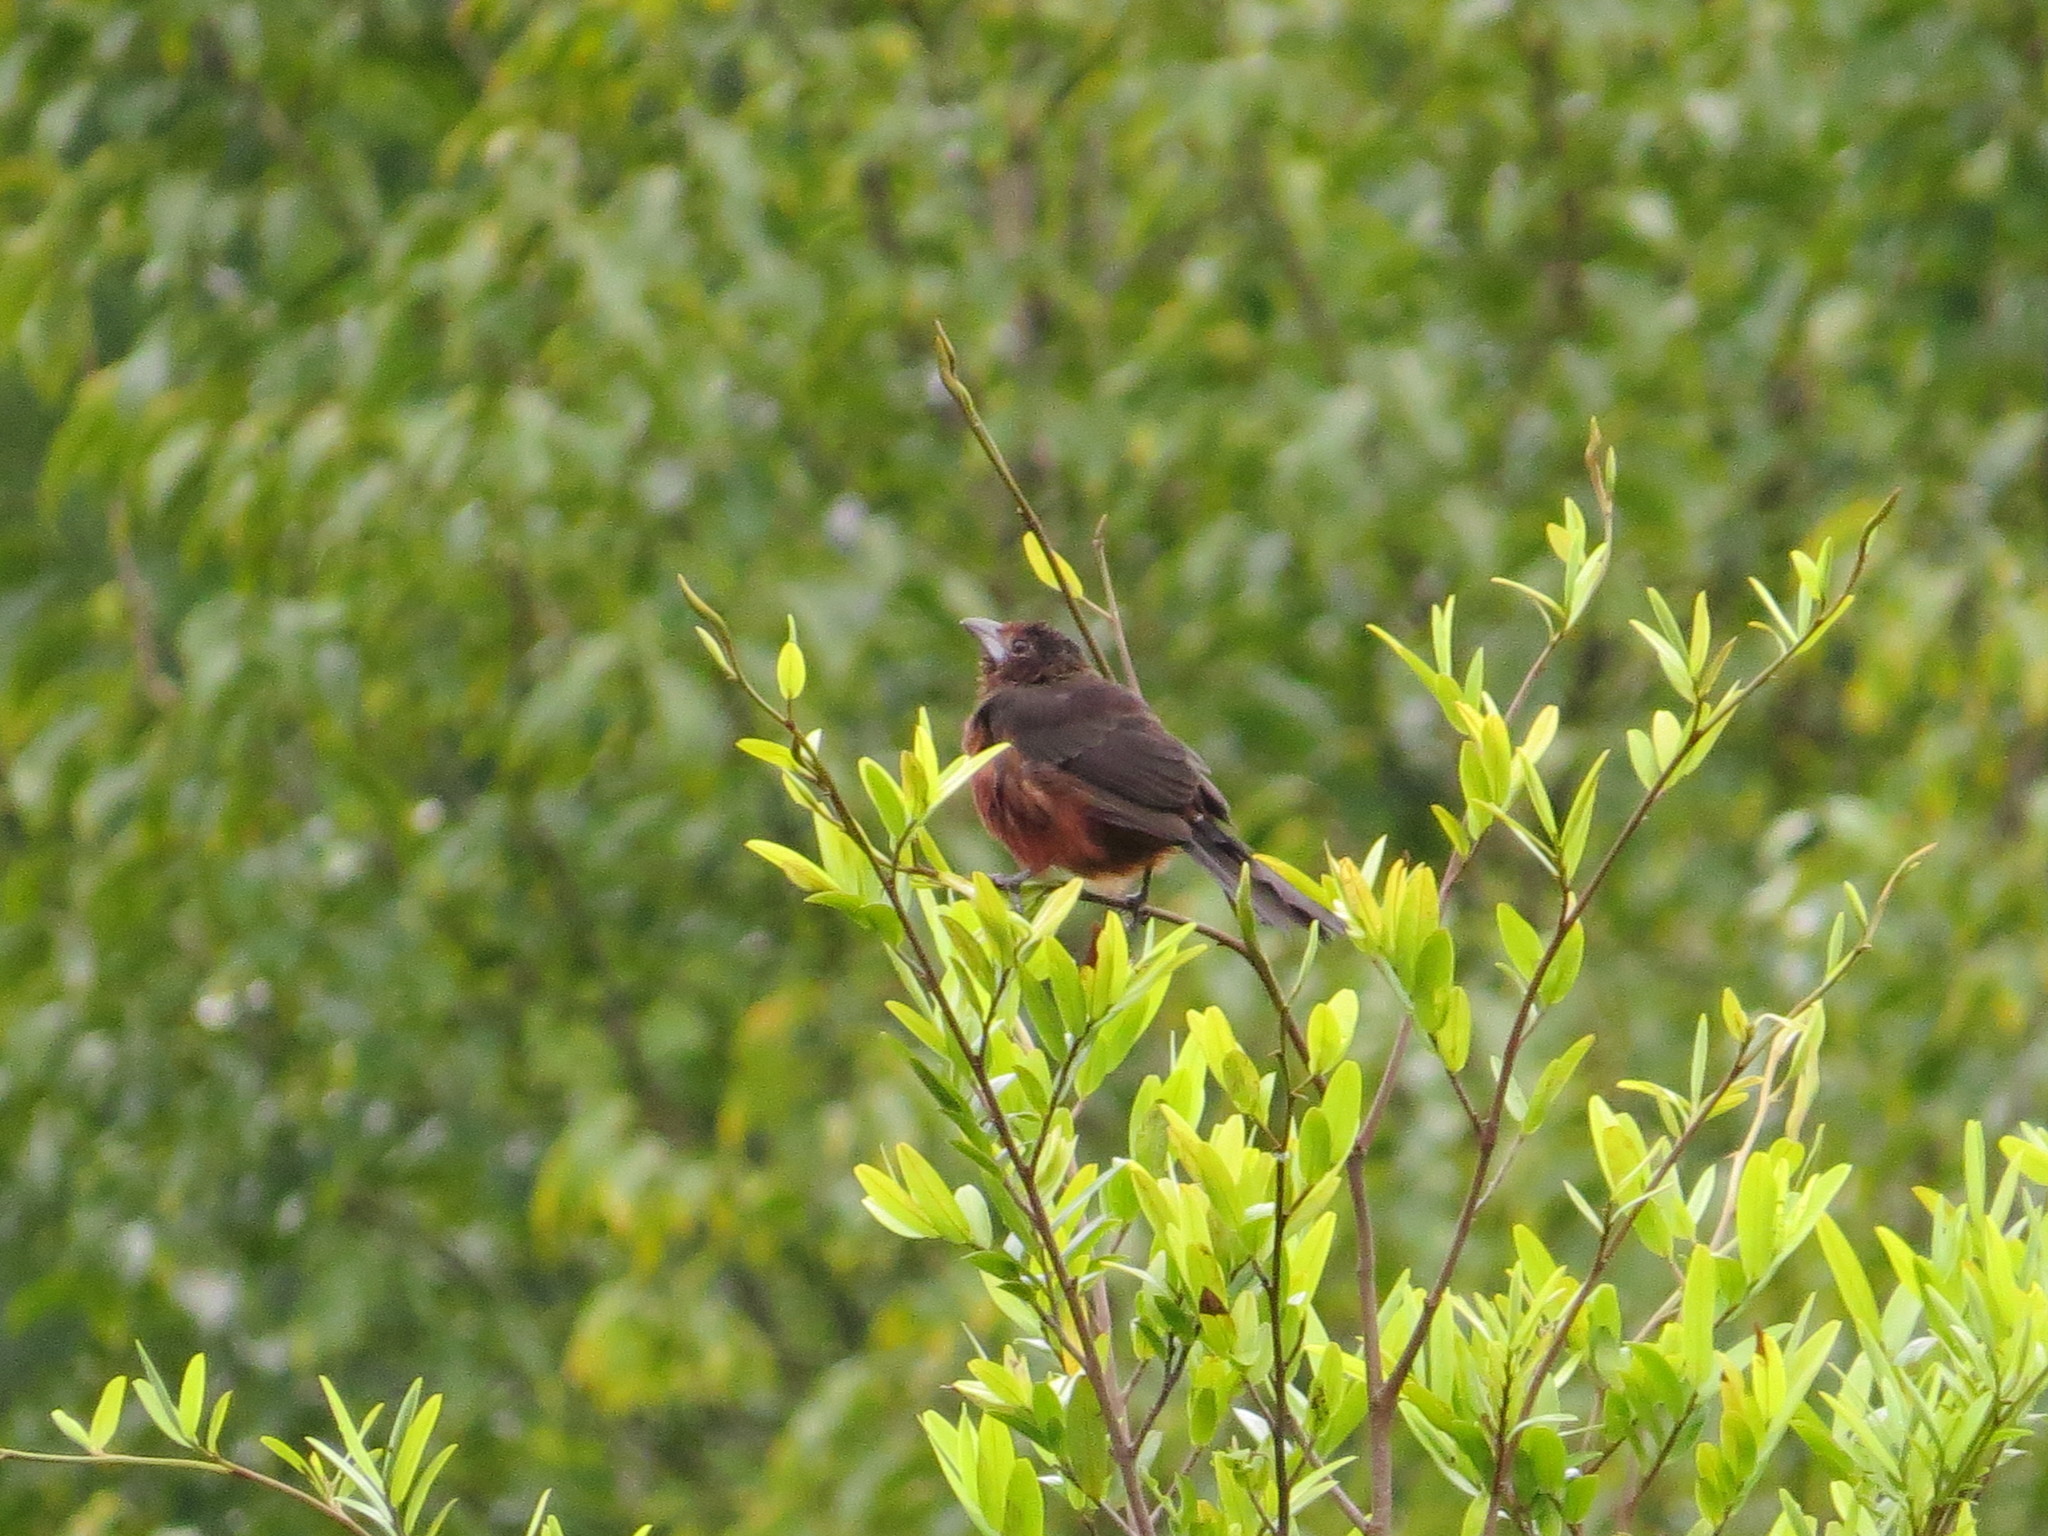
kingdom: Animalia
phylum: Chordata
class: Aves
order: Passeriformes
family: Thraupidae
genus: Ramphocelus
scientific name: Ramphocelus carbo
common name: Silver-beaked tanager
